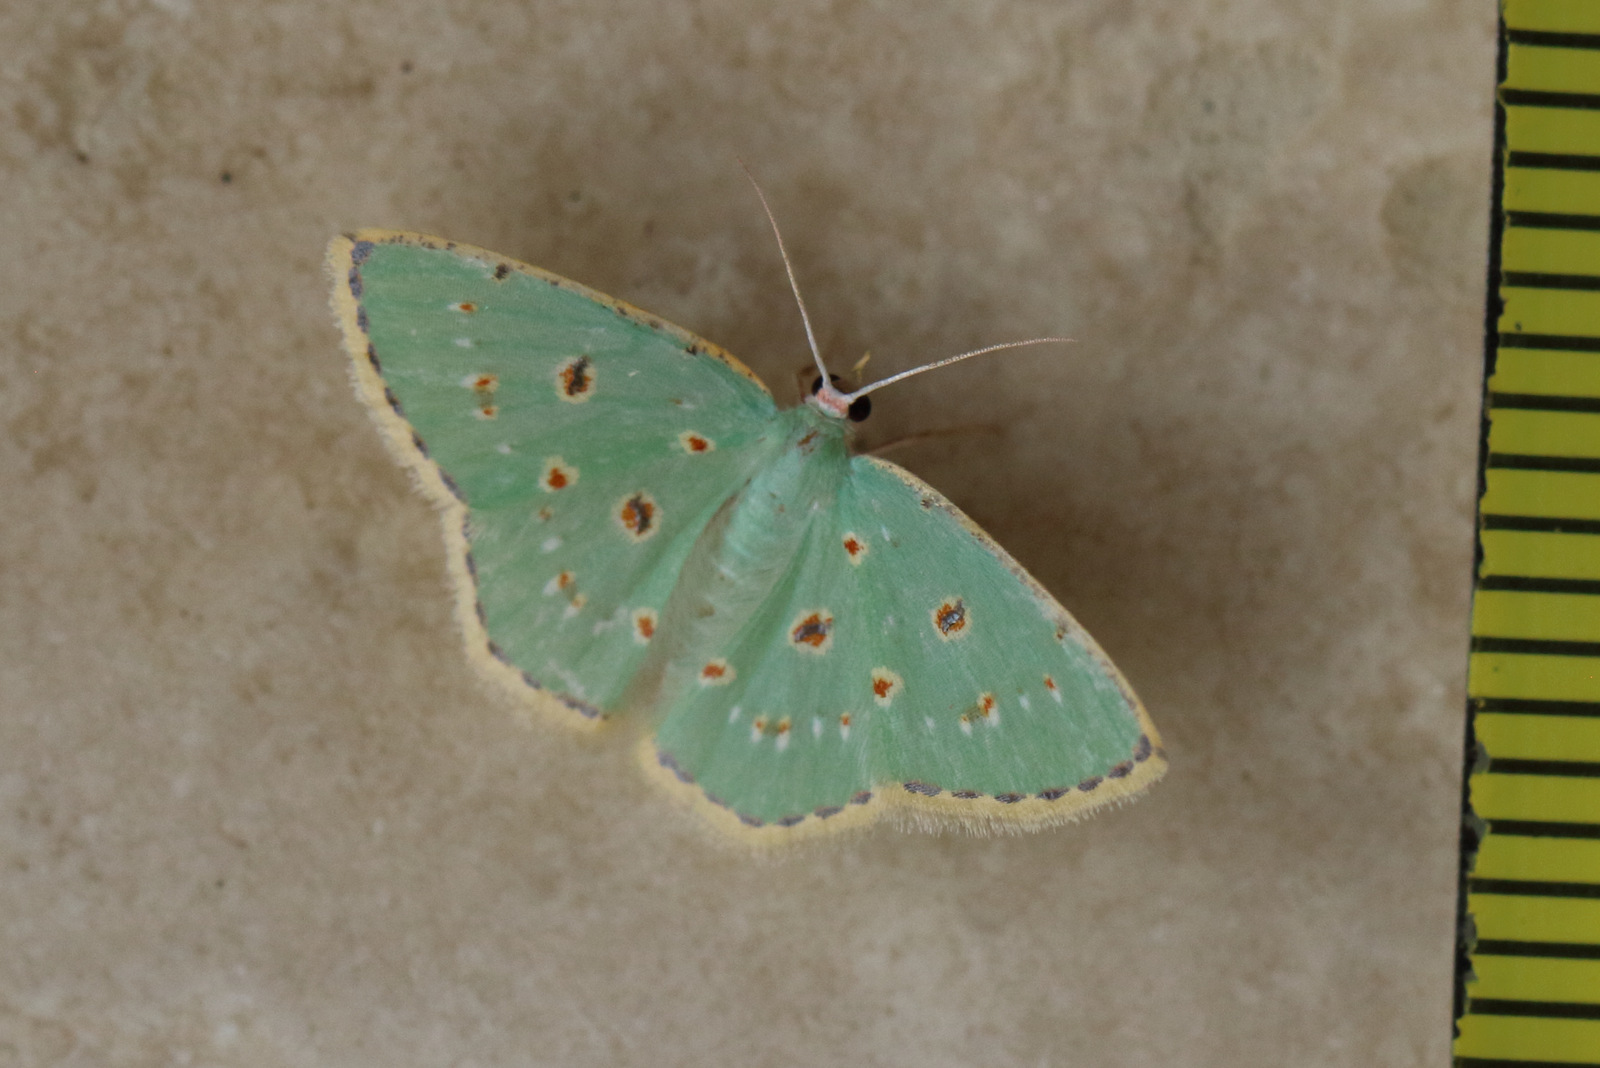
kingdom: Animalia
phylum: Arthropoda
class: Insecta
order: Lepidoptera
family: Geometridae
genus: Comostola
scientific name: Comostola laesaria
